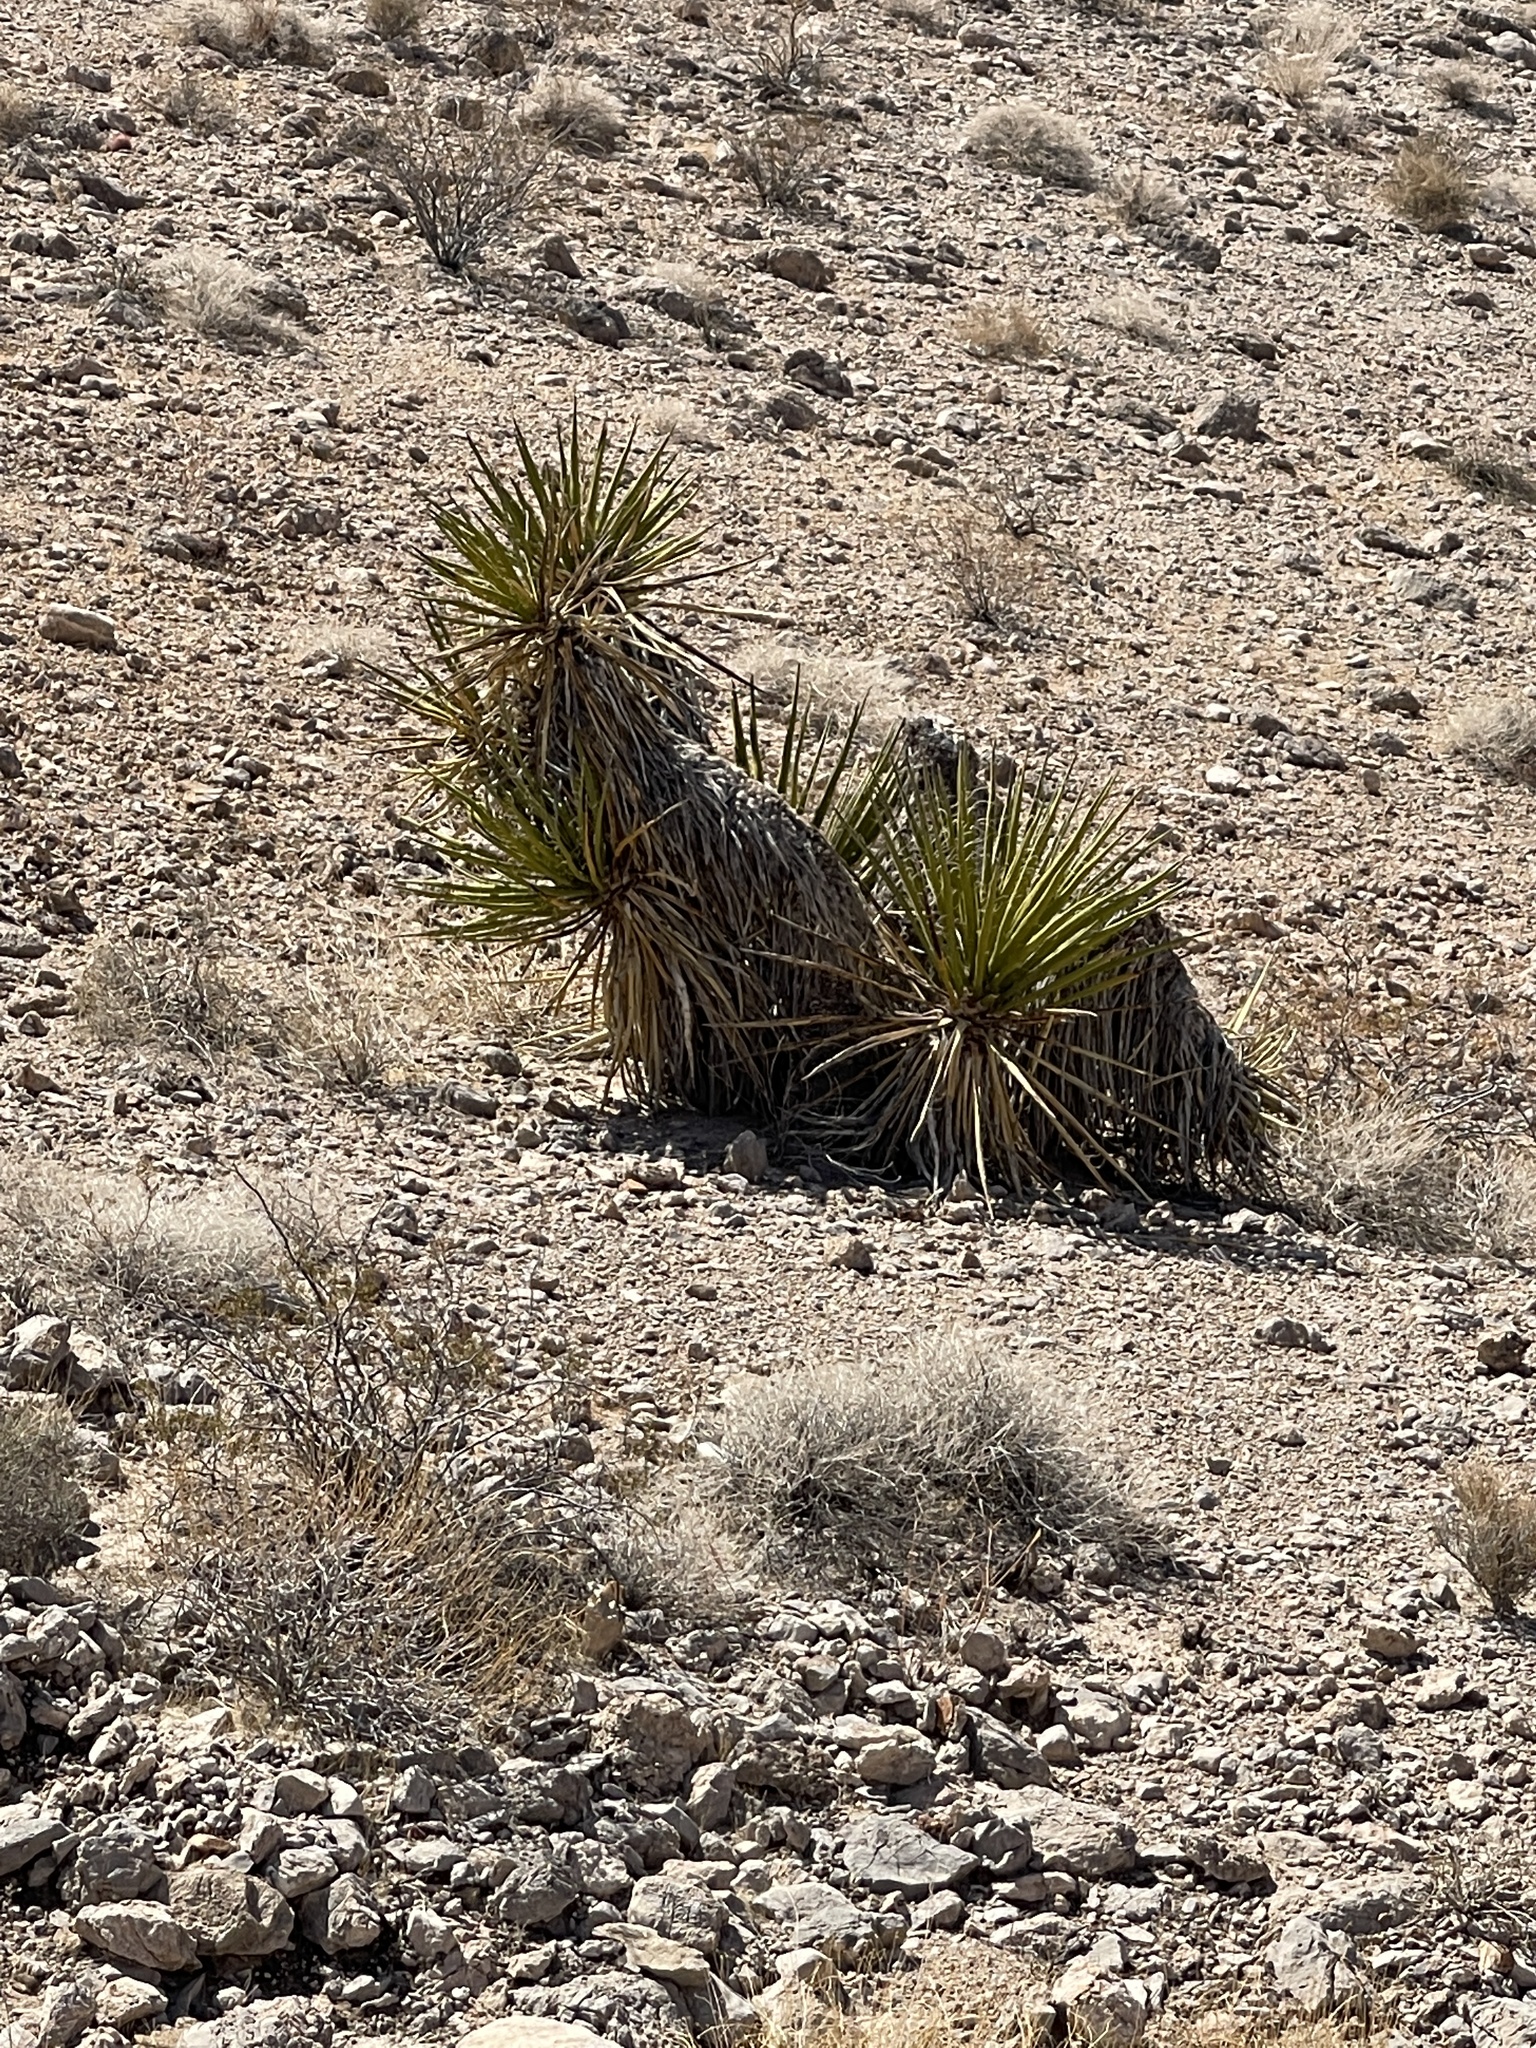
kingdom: Plantae
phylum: Tracheophyta
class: Liliopsida
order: Asparagales
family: Asparagaceae
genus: Yucca
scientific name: Yucca schidigera
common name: Mojave yucca
